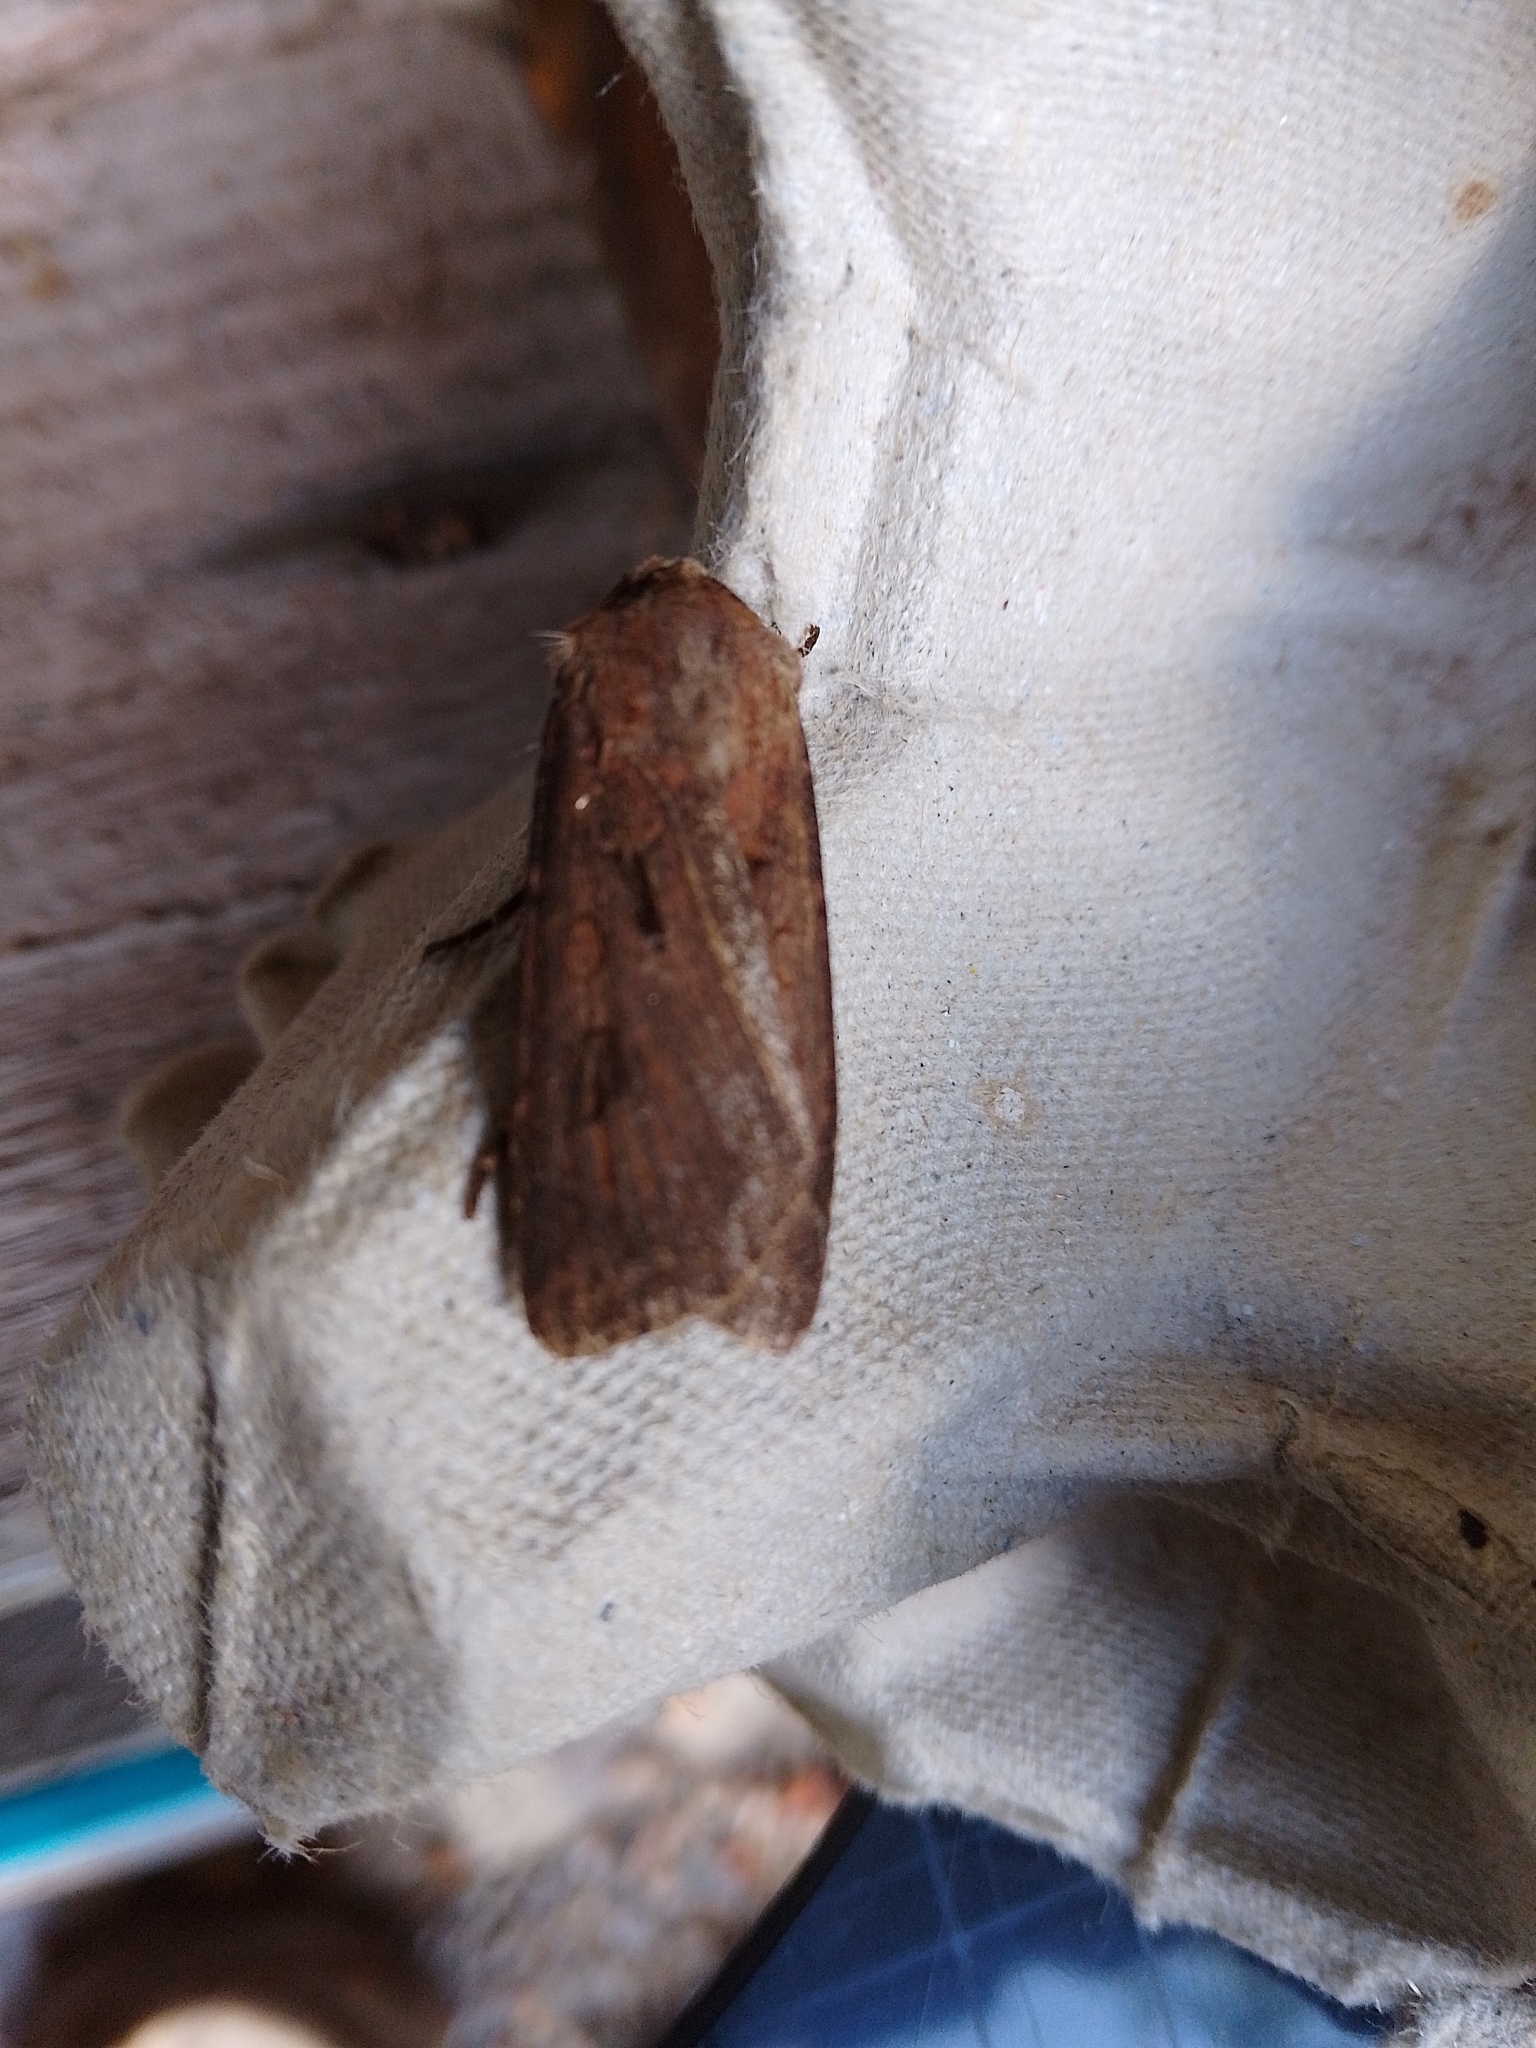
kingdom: Animalia
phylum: Arthropoda
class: Insecta
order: Lepidoptera
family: Noctuidae
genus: Agrotis
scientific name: Agrotis exclamationis
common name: Heart and dart
